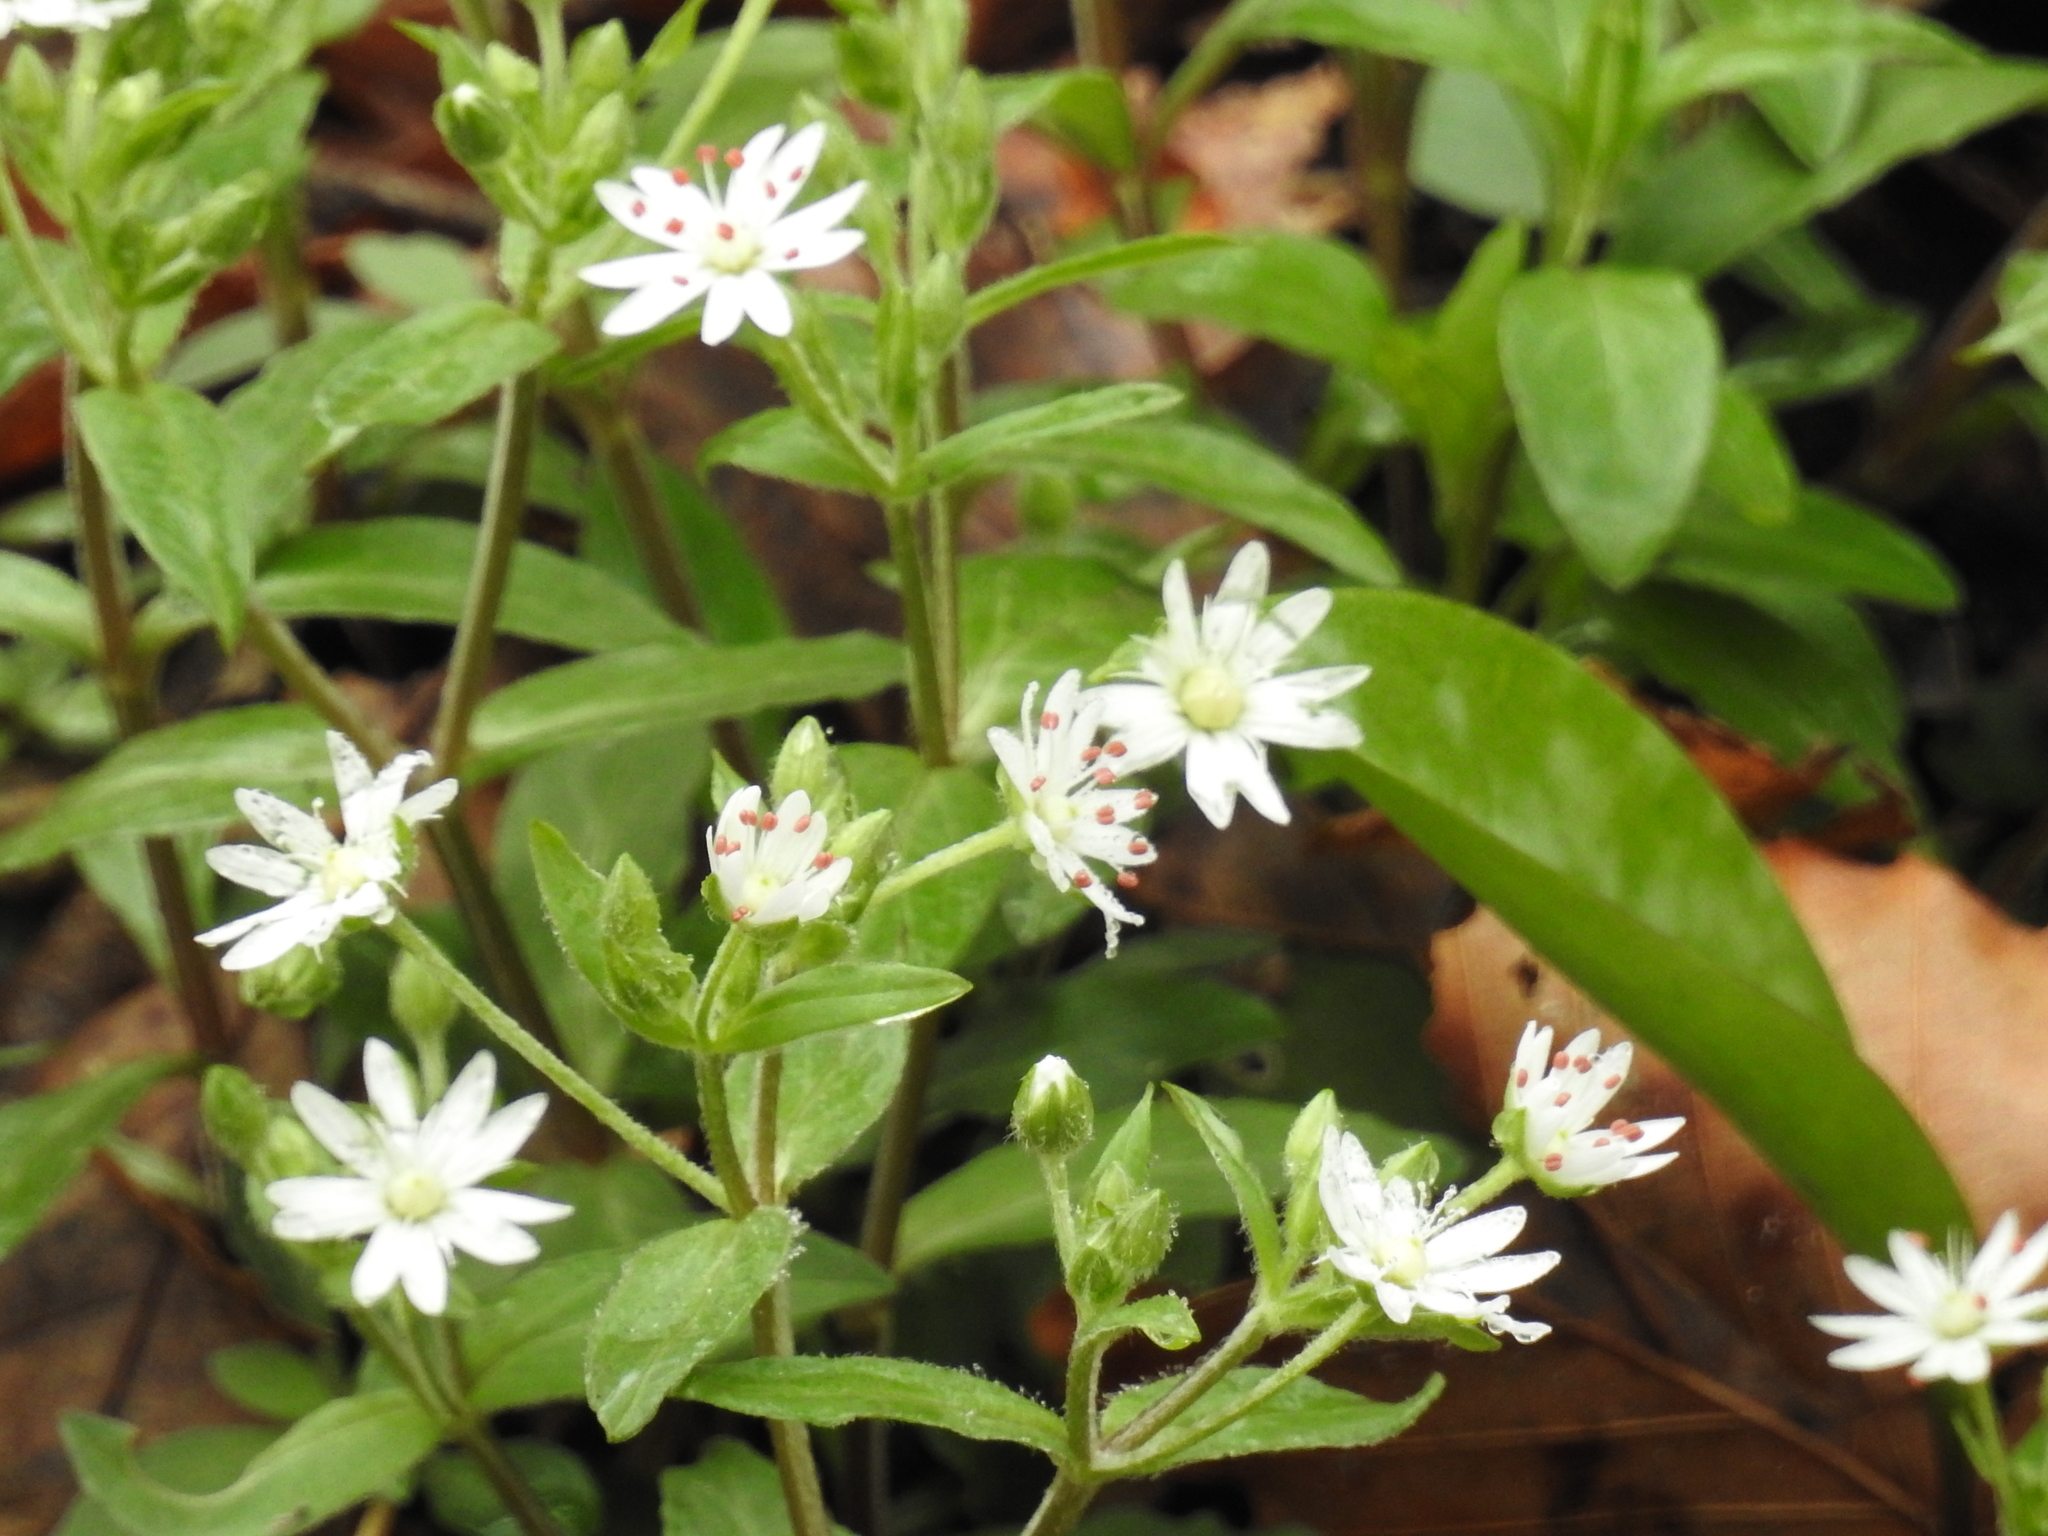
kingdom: Plantae
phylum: Tracheophyta
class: Magnoliopsida
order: Caryophyllales
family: Caryophyllaceae
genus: Stellaria
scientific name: Stellaria pubera
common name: Star chickweed
